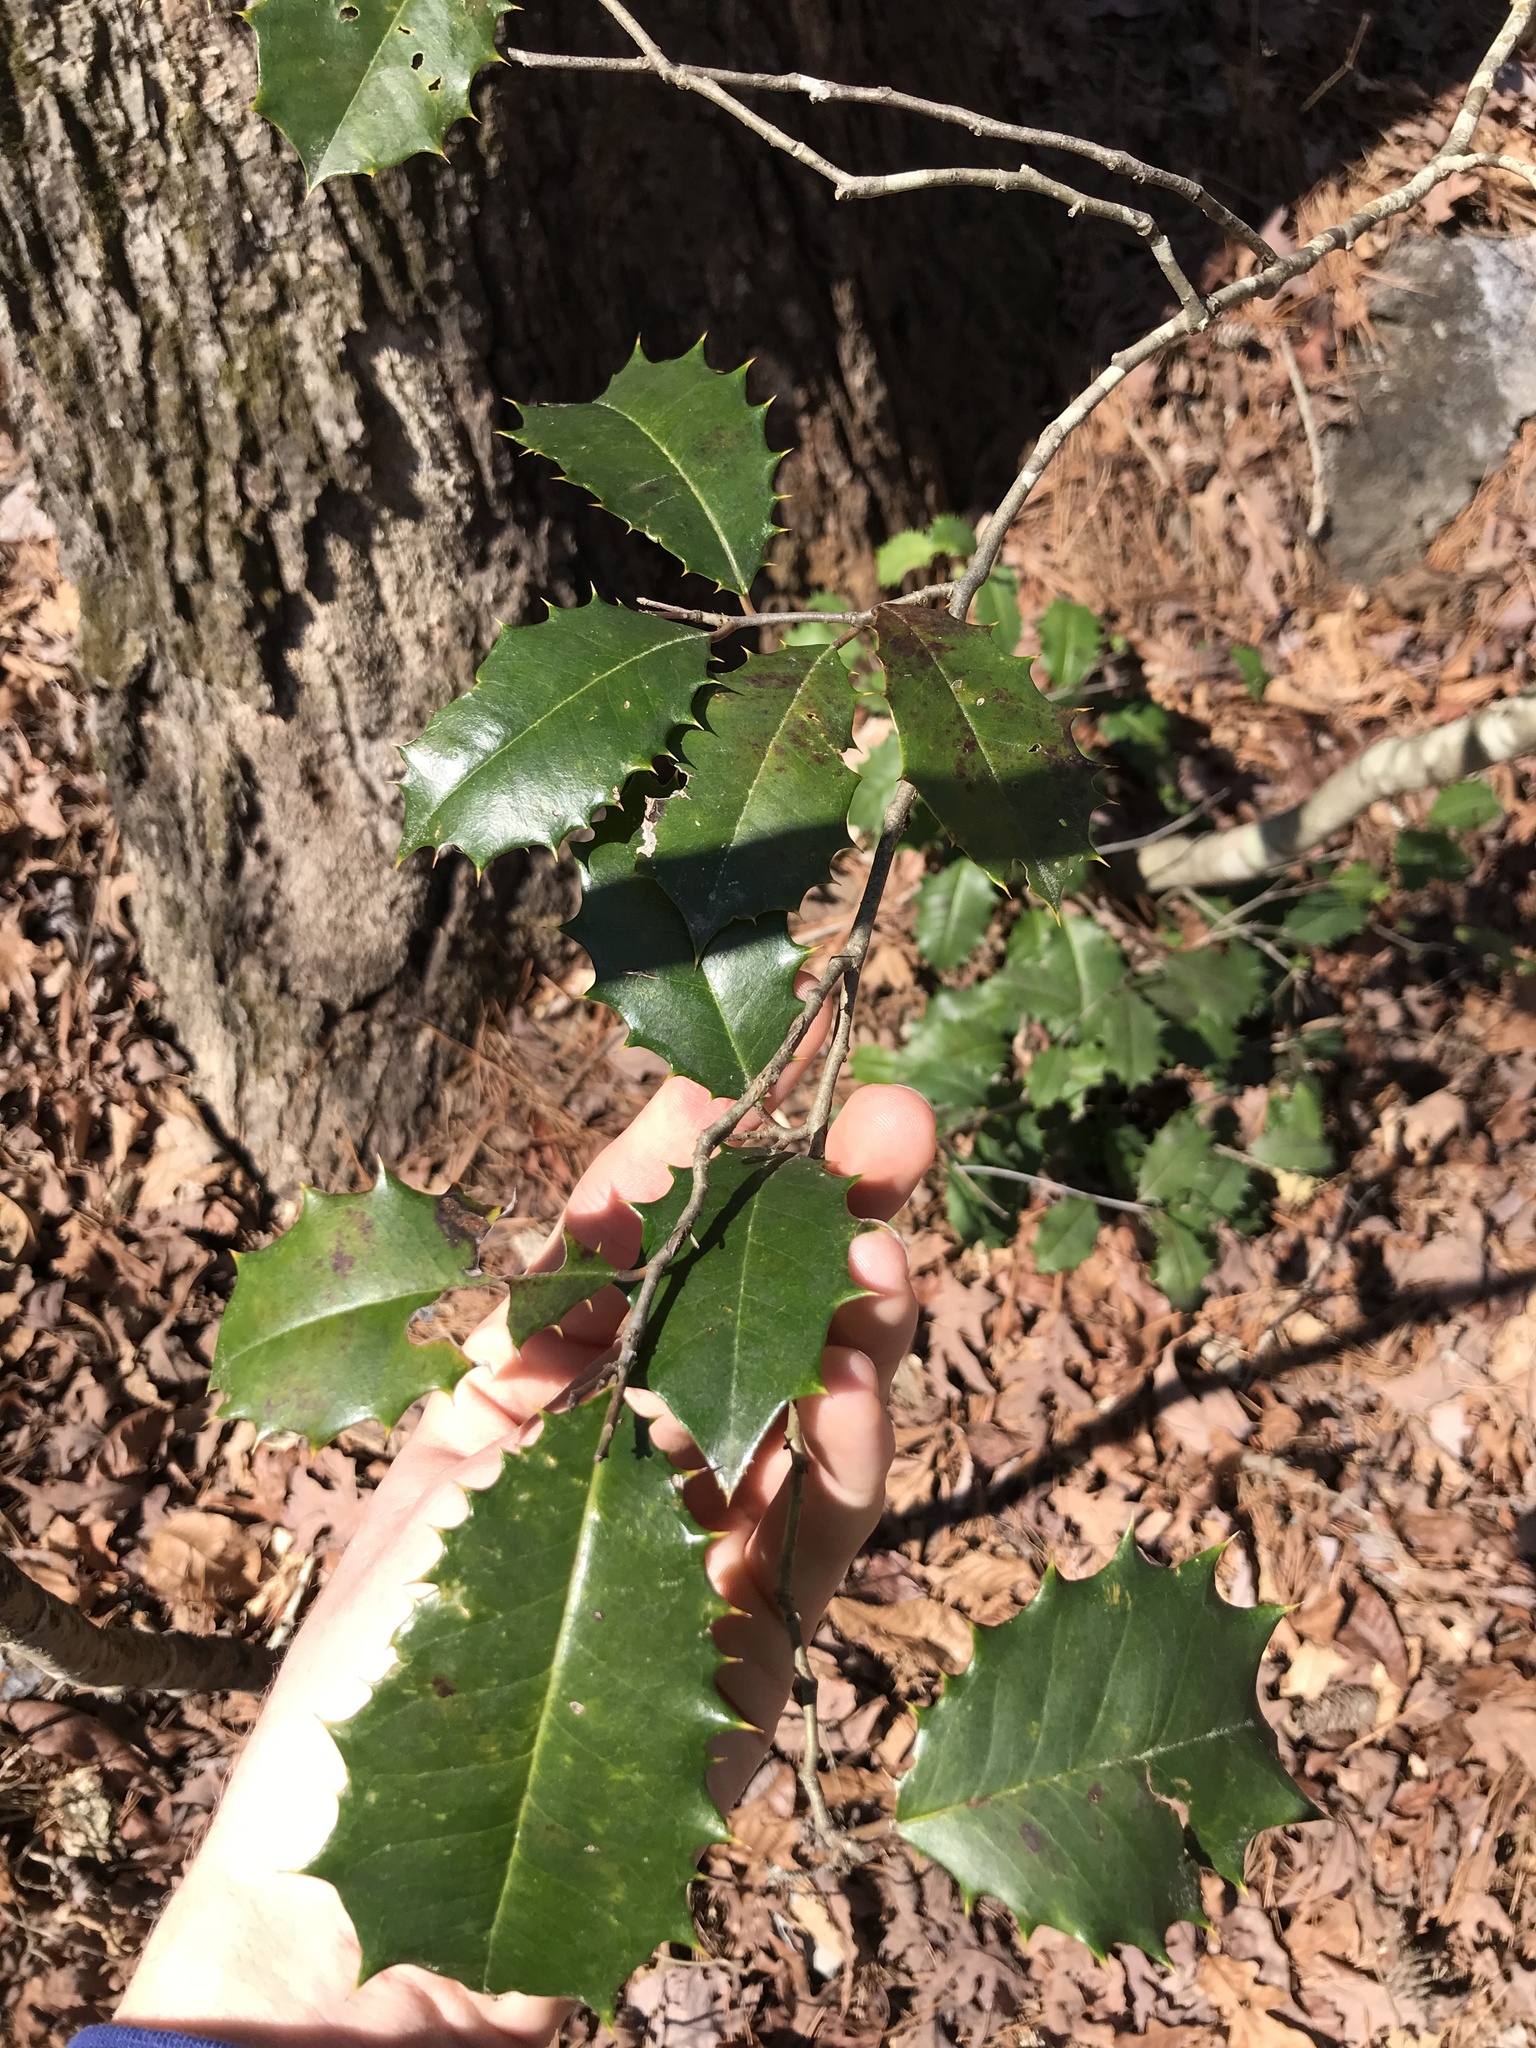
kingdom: Plantae
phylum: Tracheophyta
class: Magnoliopsida
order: Aquifoliales
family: Aquifoliaceae
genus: Ilex
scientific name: Ilex opaca
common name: American holly
